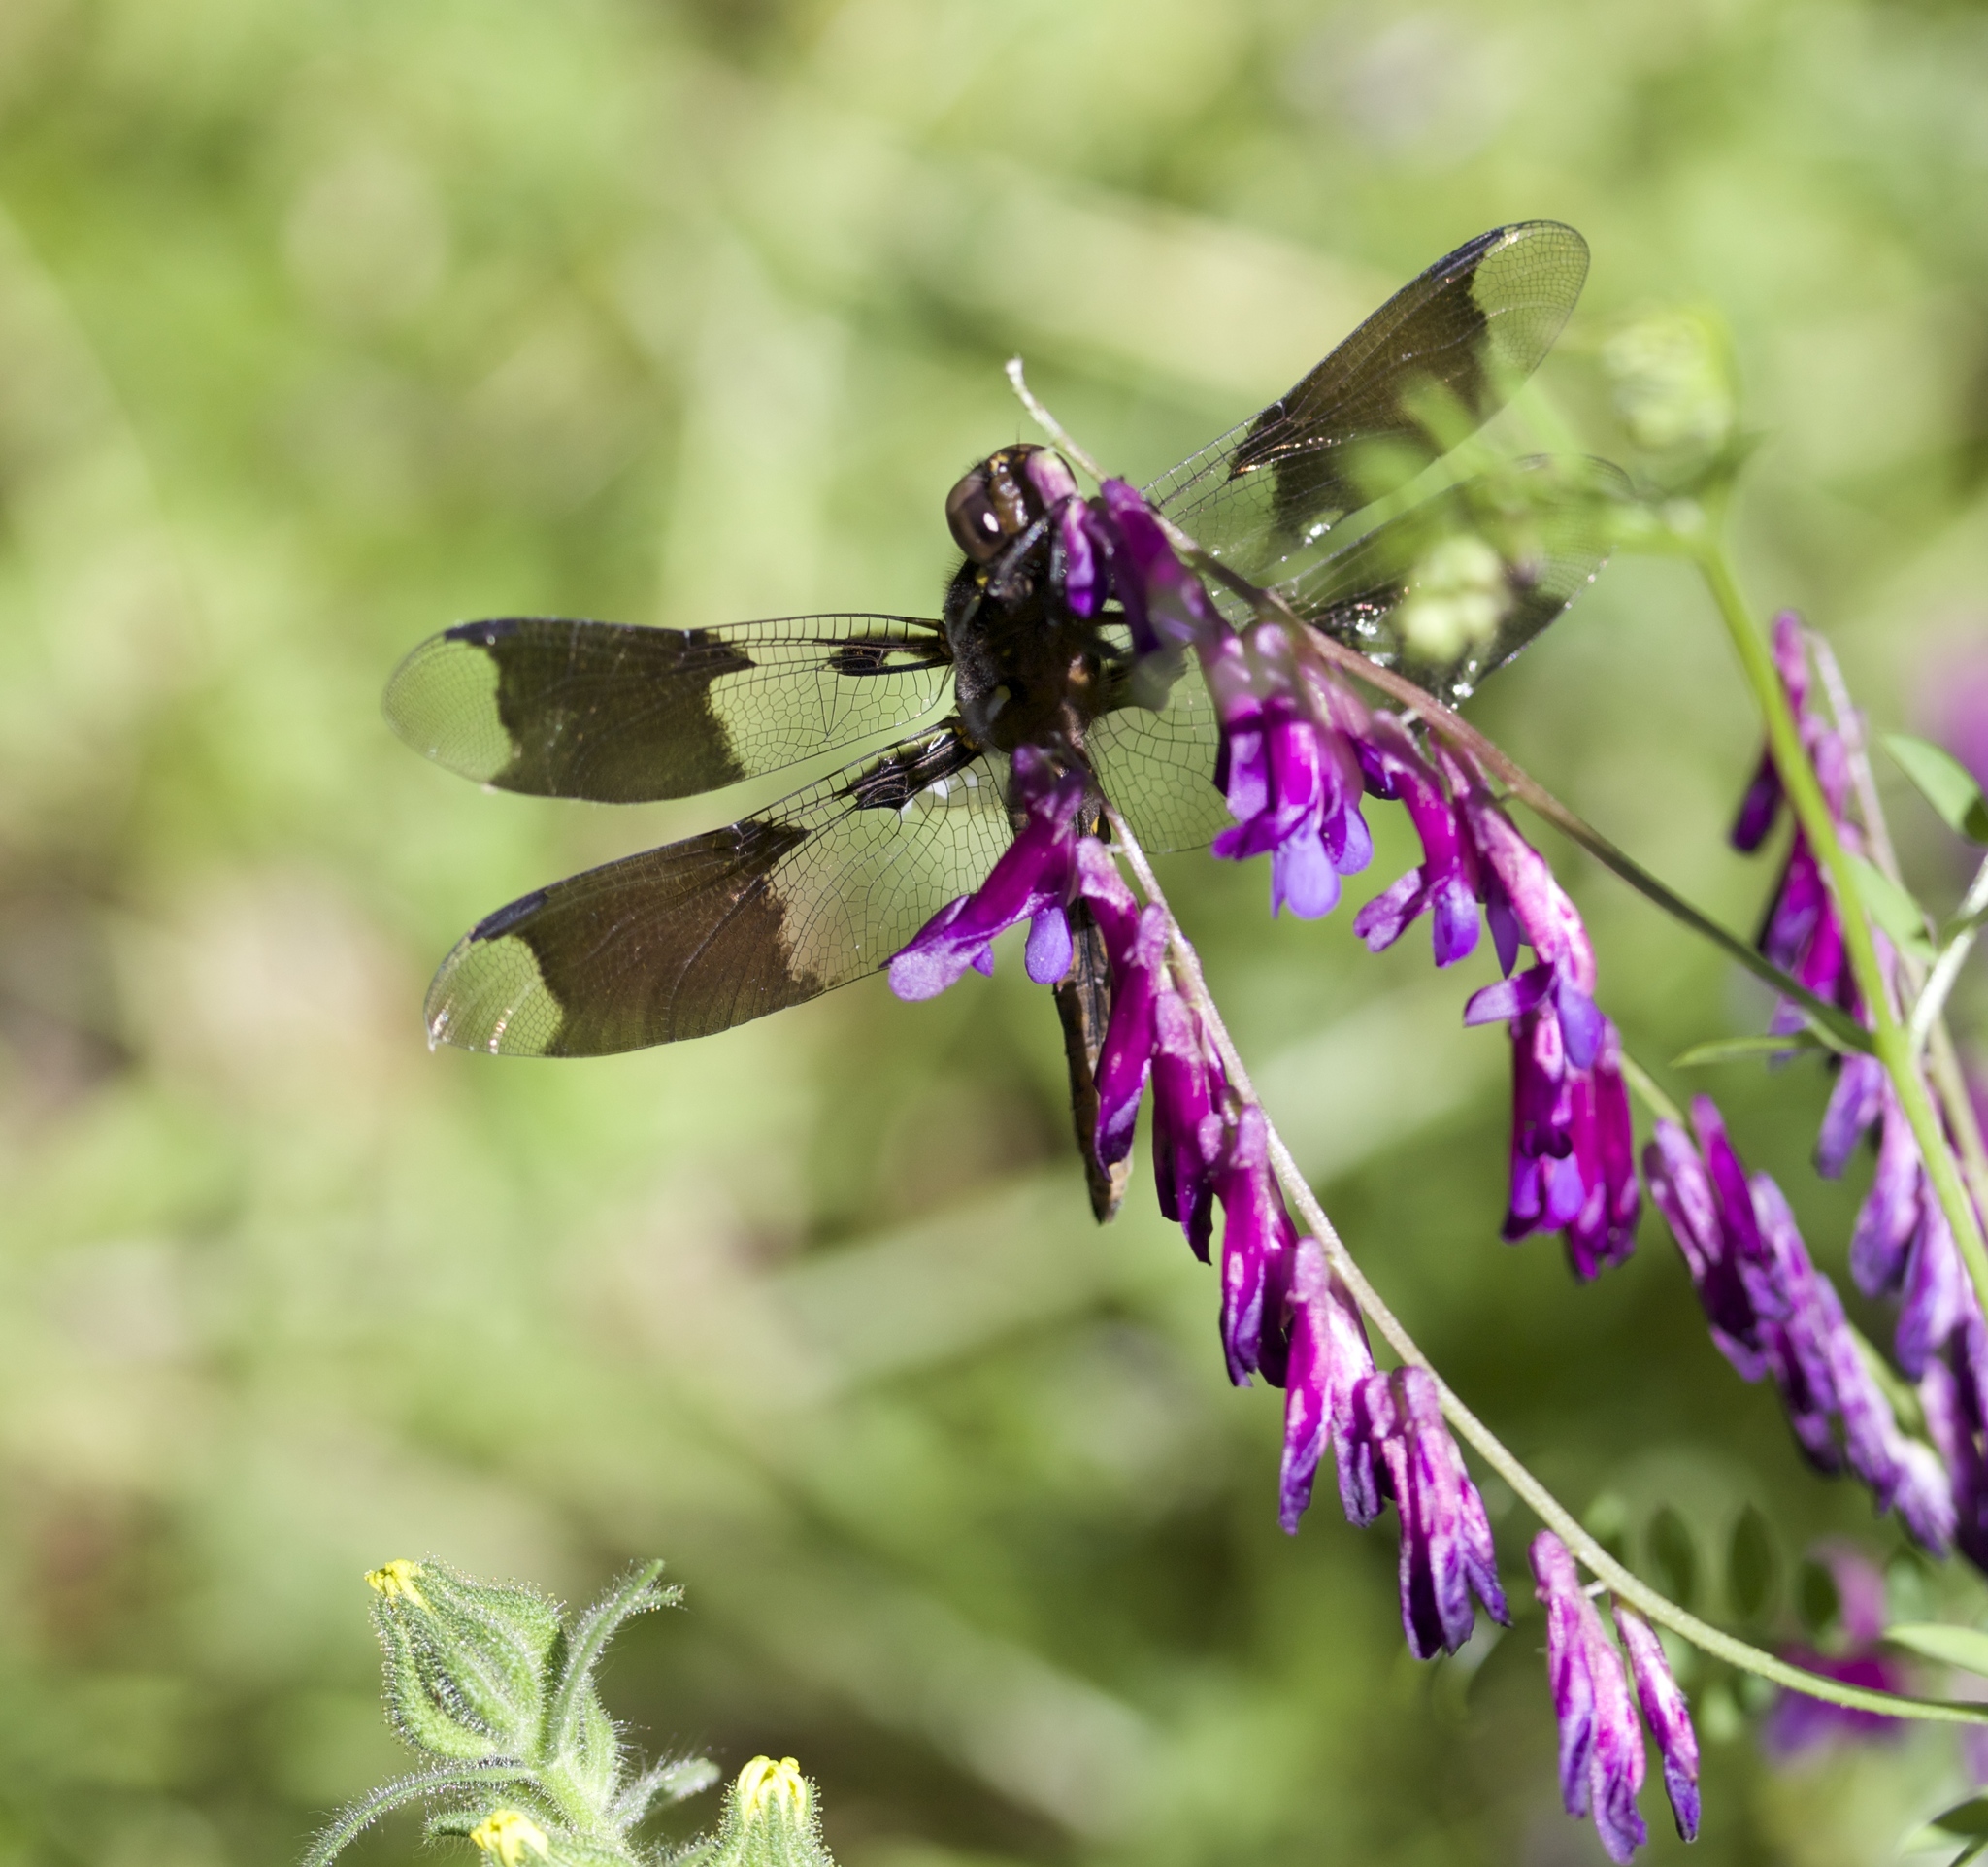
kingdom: Animalia
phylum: Arthropoda
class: Insecta
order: Odonata
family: Libellulidae
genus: Plathemis
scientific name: Plathemis lydia
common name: Common whitetail
